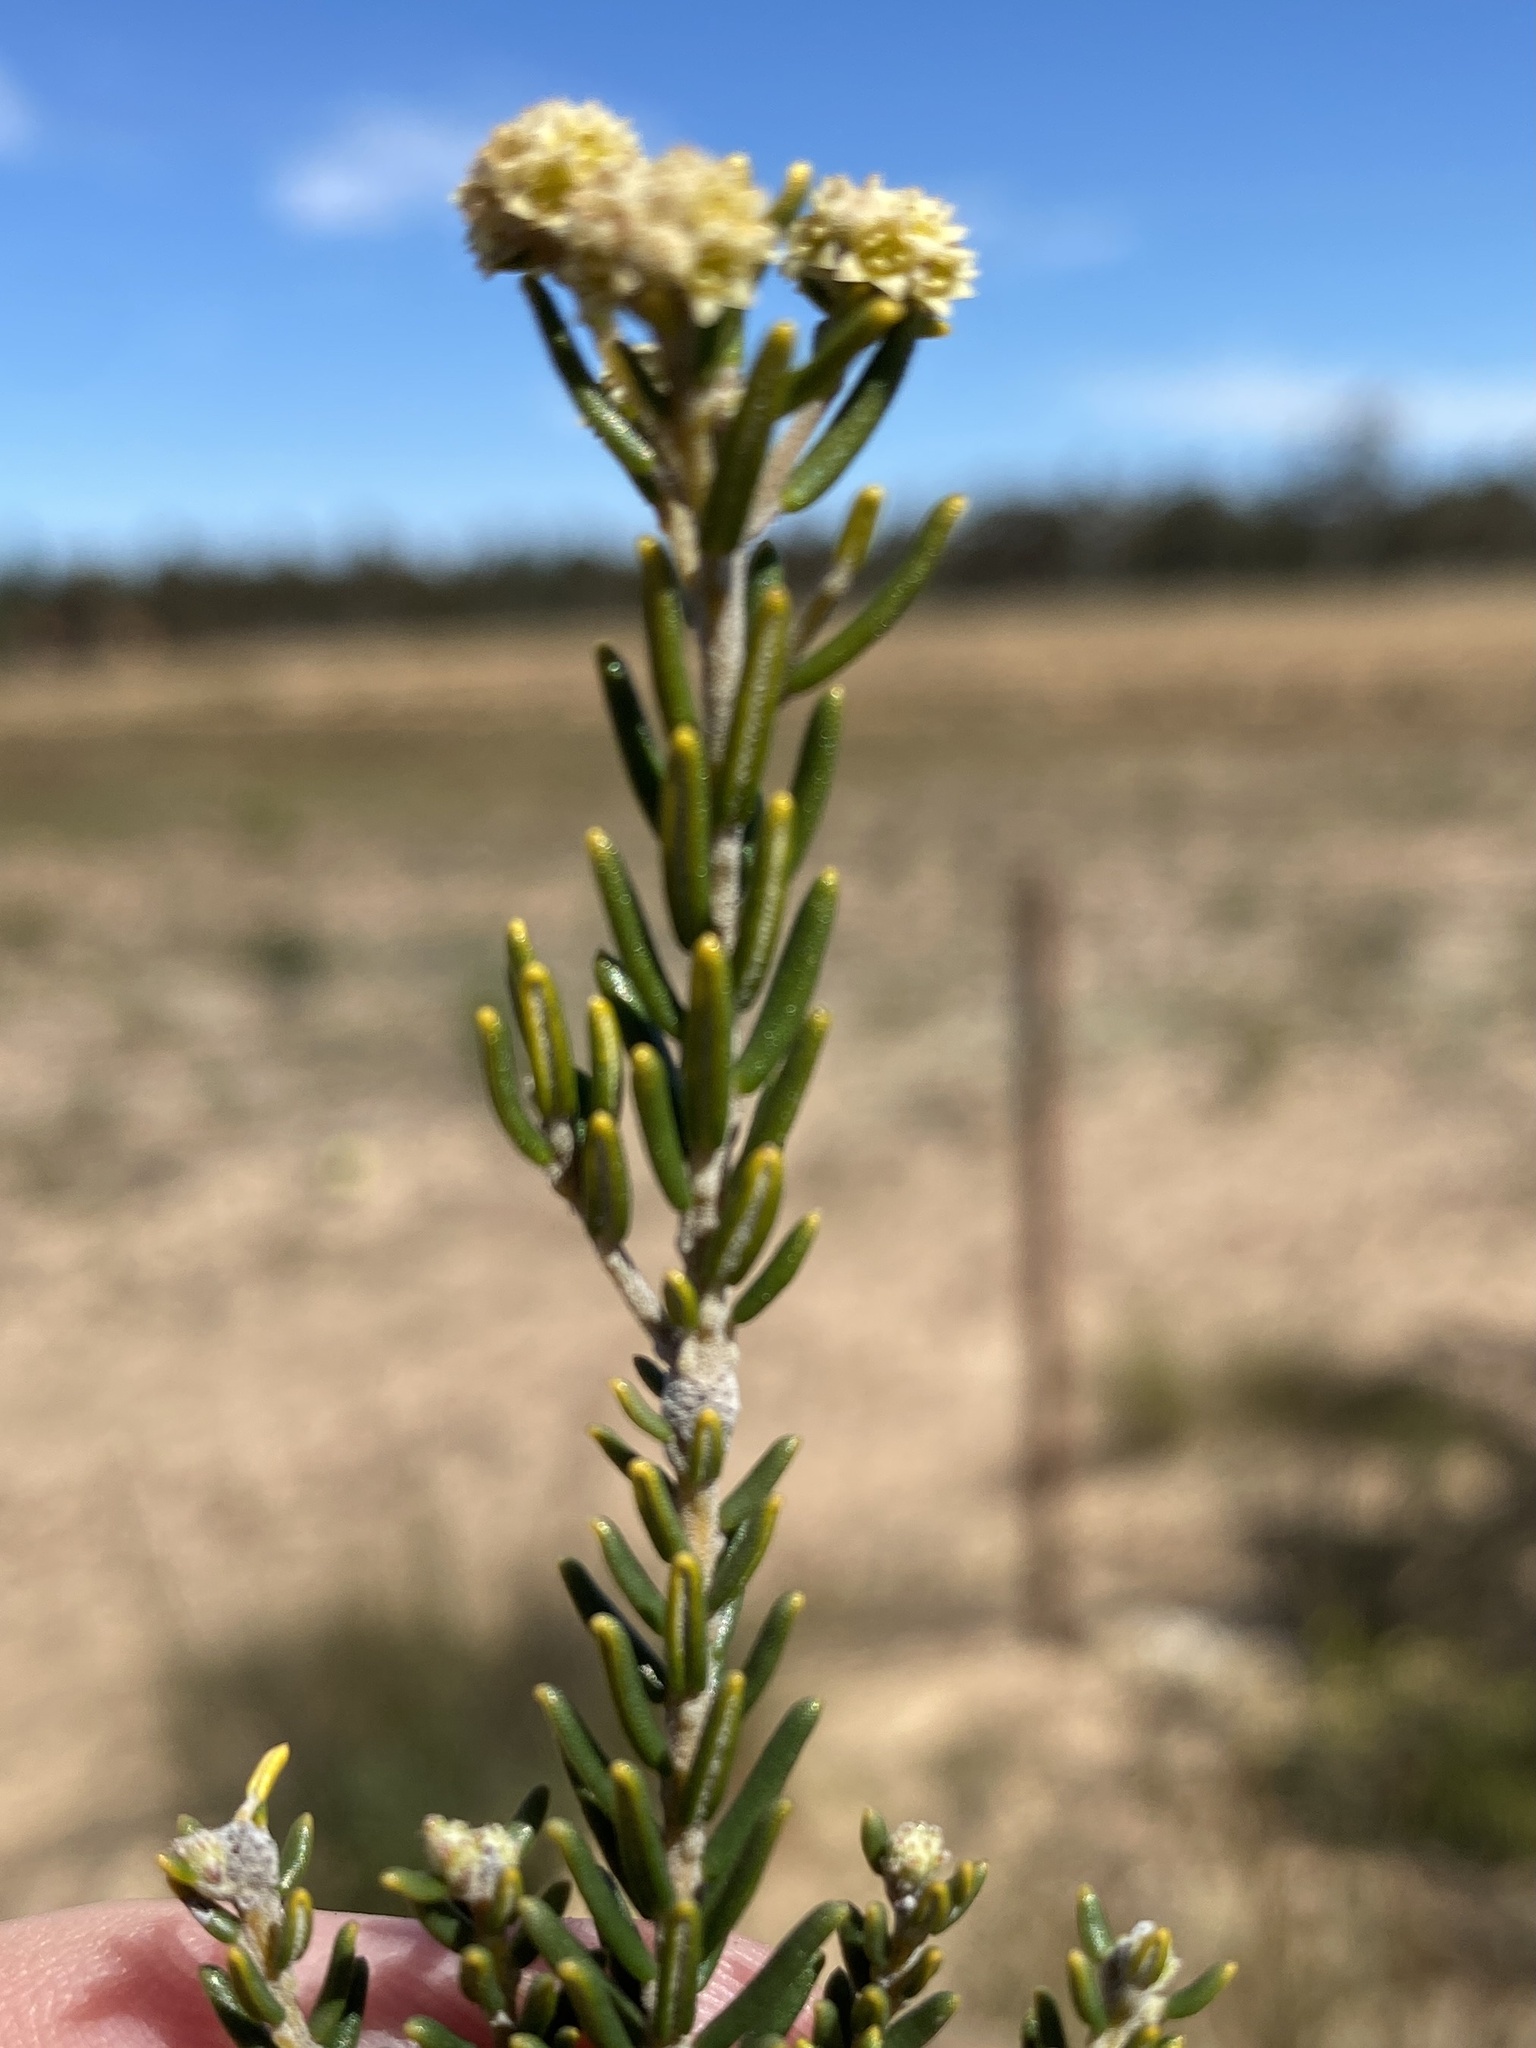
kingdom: Plantae
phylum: Tracheophyta
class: Magnoliopsida
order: Rosales
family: Rhamnaceae
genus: Phylica
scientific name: Phylica cephalantha
